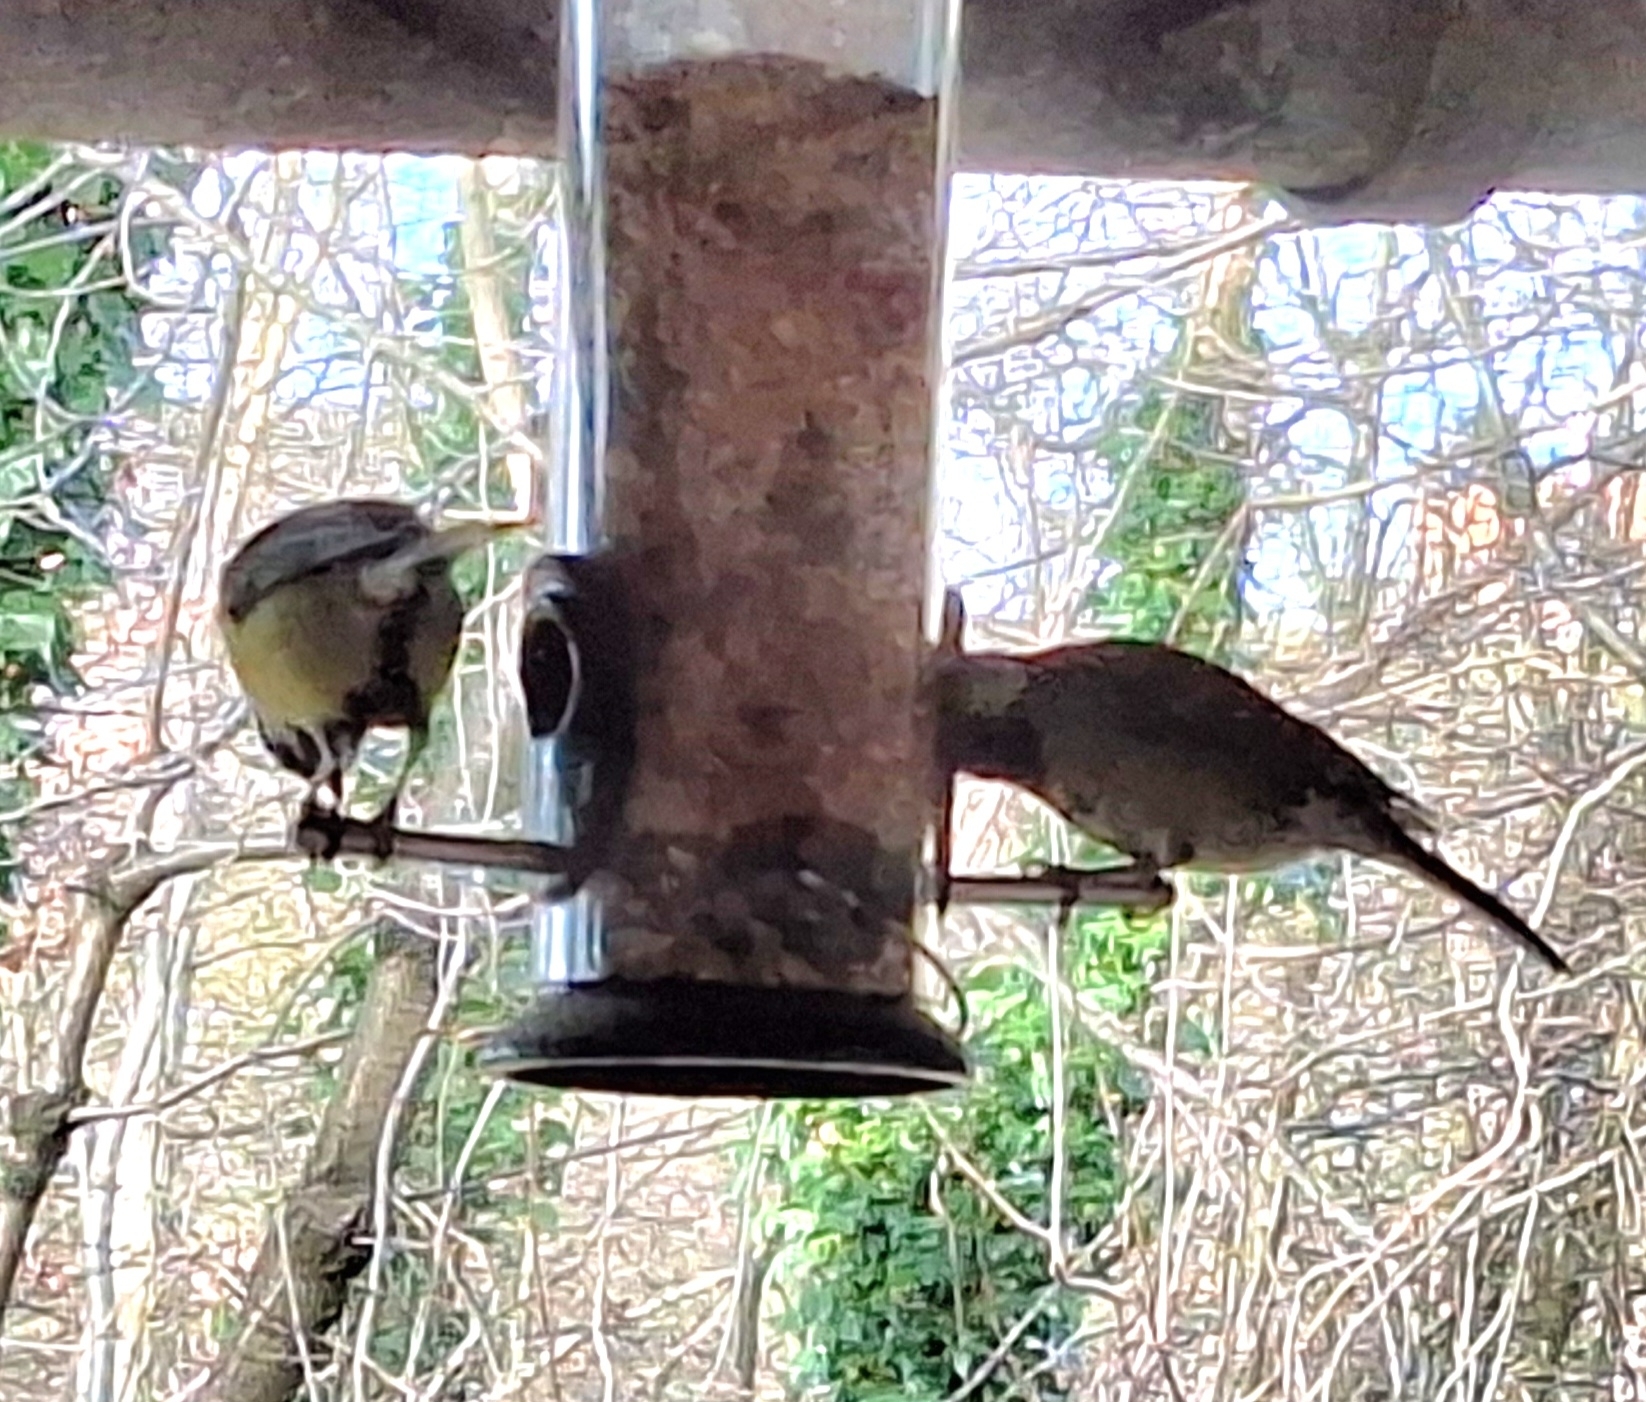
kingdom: Animalia
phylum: Chordata
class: Aves
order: Passeriformes
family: Paridae
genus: Parus
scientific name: Parus major
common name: Great tit
